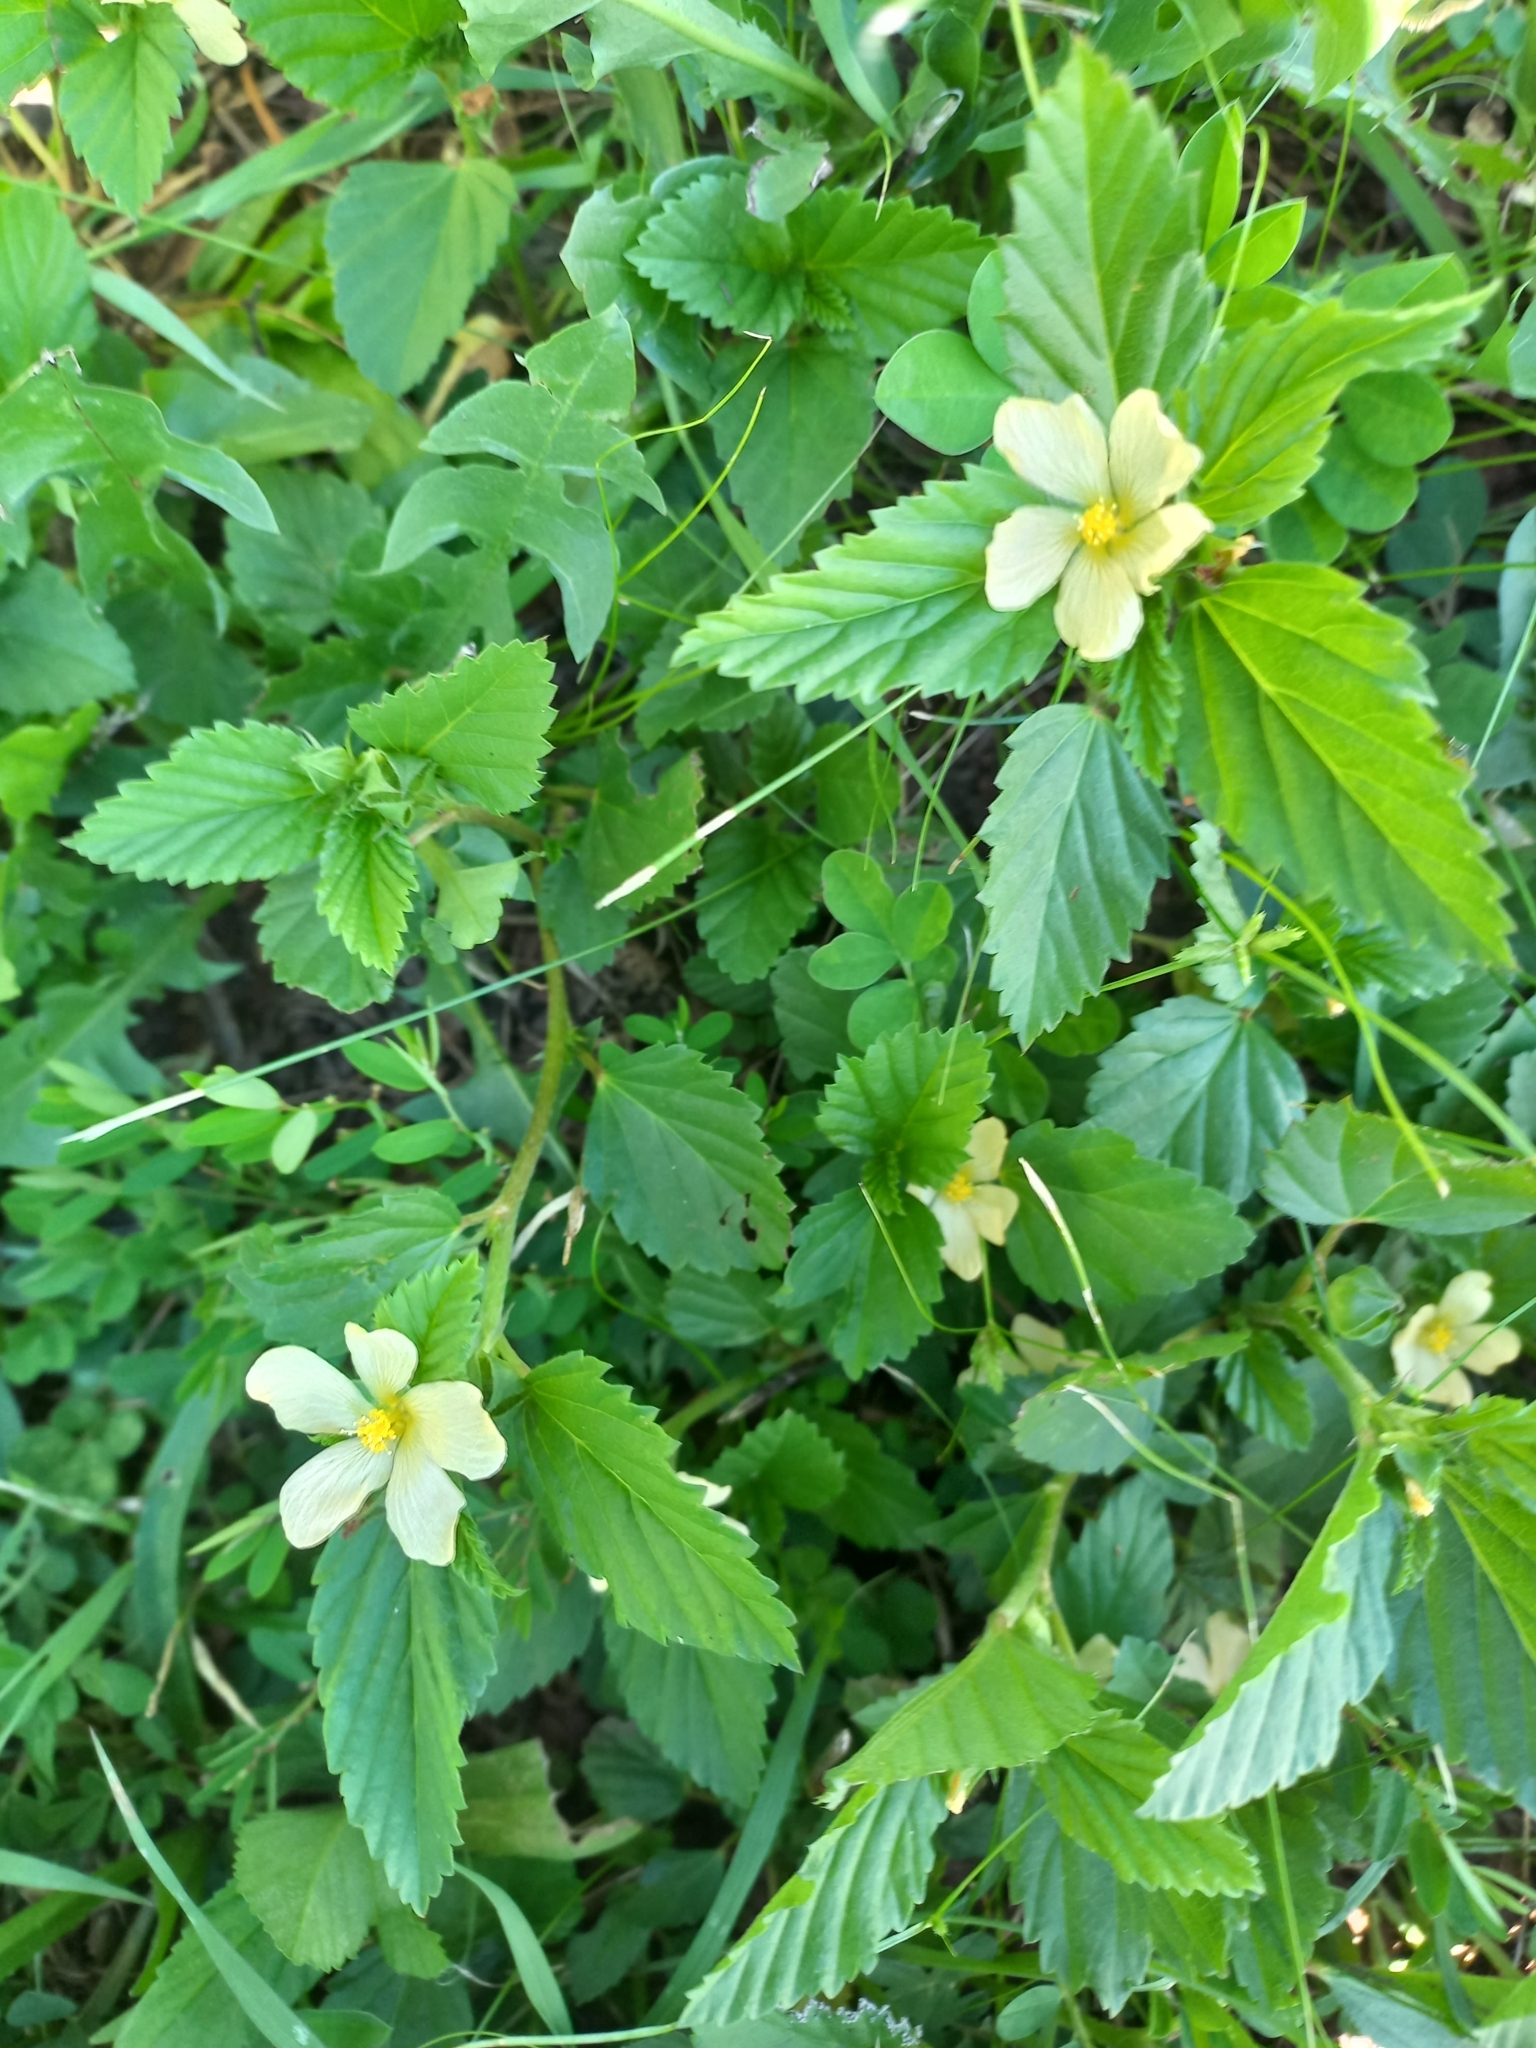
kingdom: Plantae
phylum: Tracheophyta
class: Magnoliopsida
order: Malvales
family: Malvaceae
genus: Malvastrum
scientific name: Malvastrum coromandelianum
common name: Threelobe false mallow
